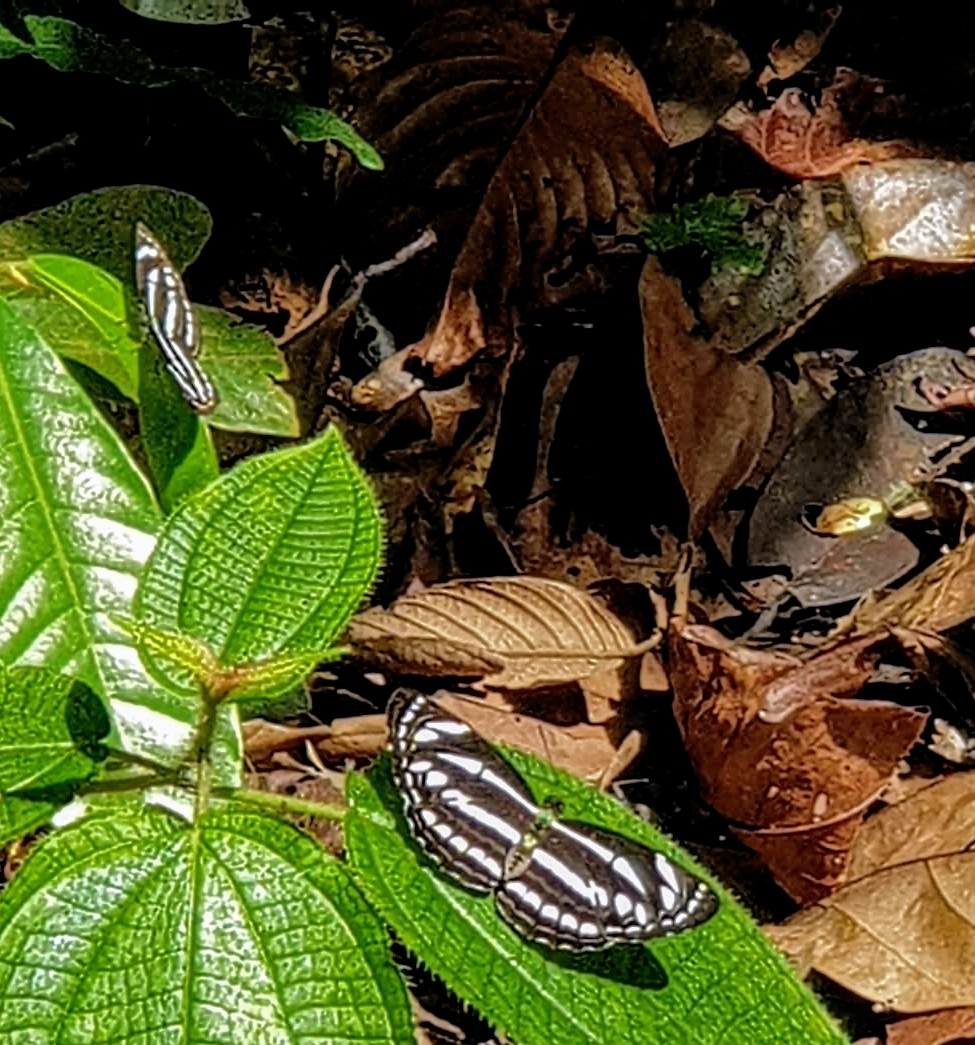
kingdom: Animalia
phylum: Arthropoda
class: Insecta
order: Lepidoptera
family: Nymphalidae
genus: Neptis
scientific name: Neptis leucoporus
